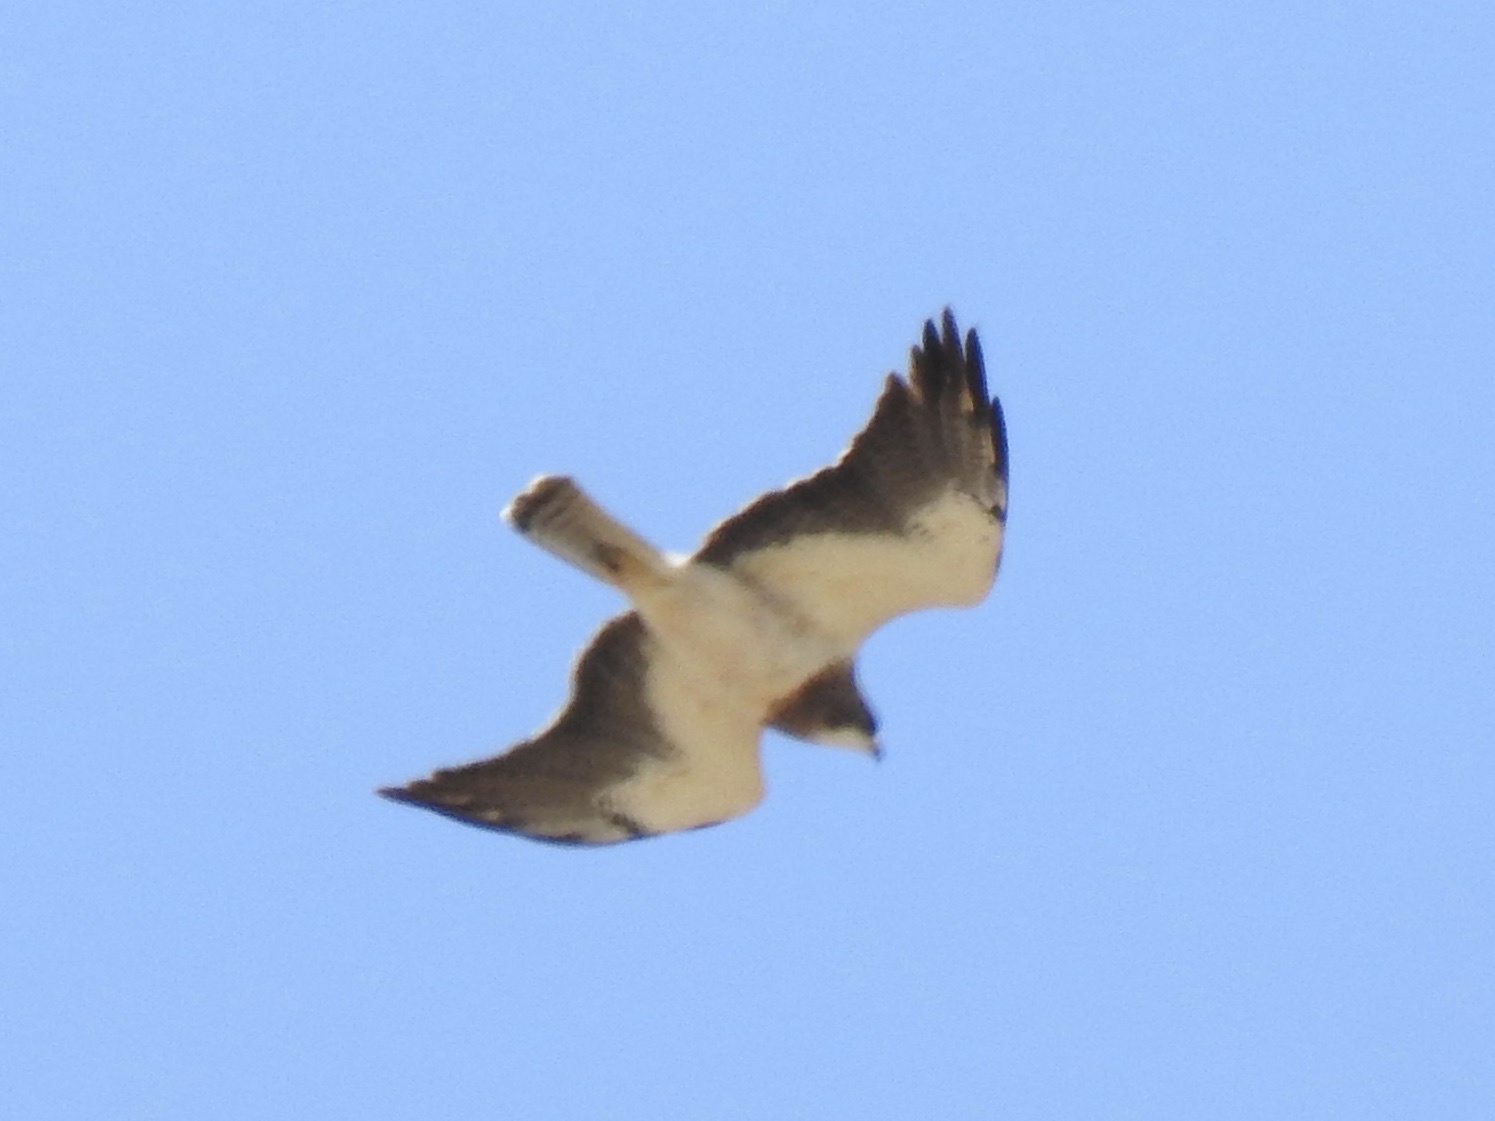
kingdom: Animalia
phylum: Chordata
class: Aves
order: Accipitriformes
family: Accipitridae
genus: Buteo
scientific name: Buteo swainsoni
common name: Swainson's hawk
